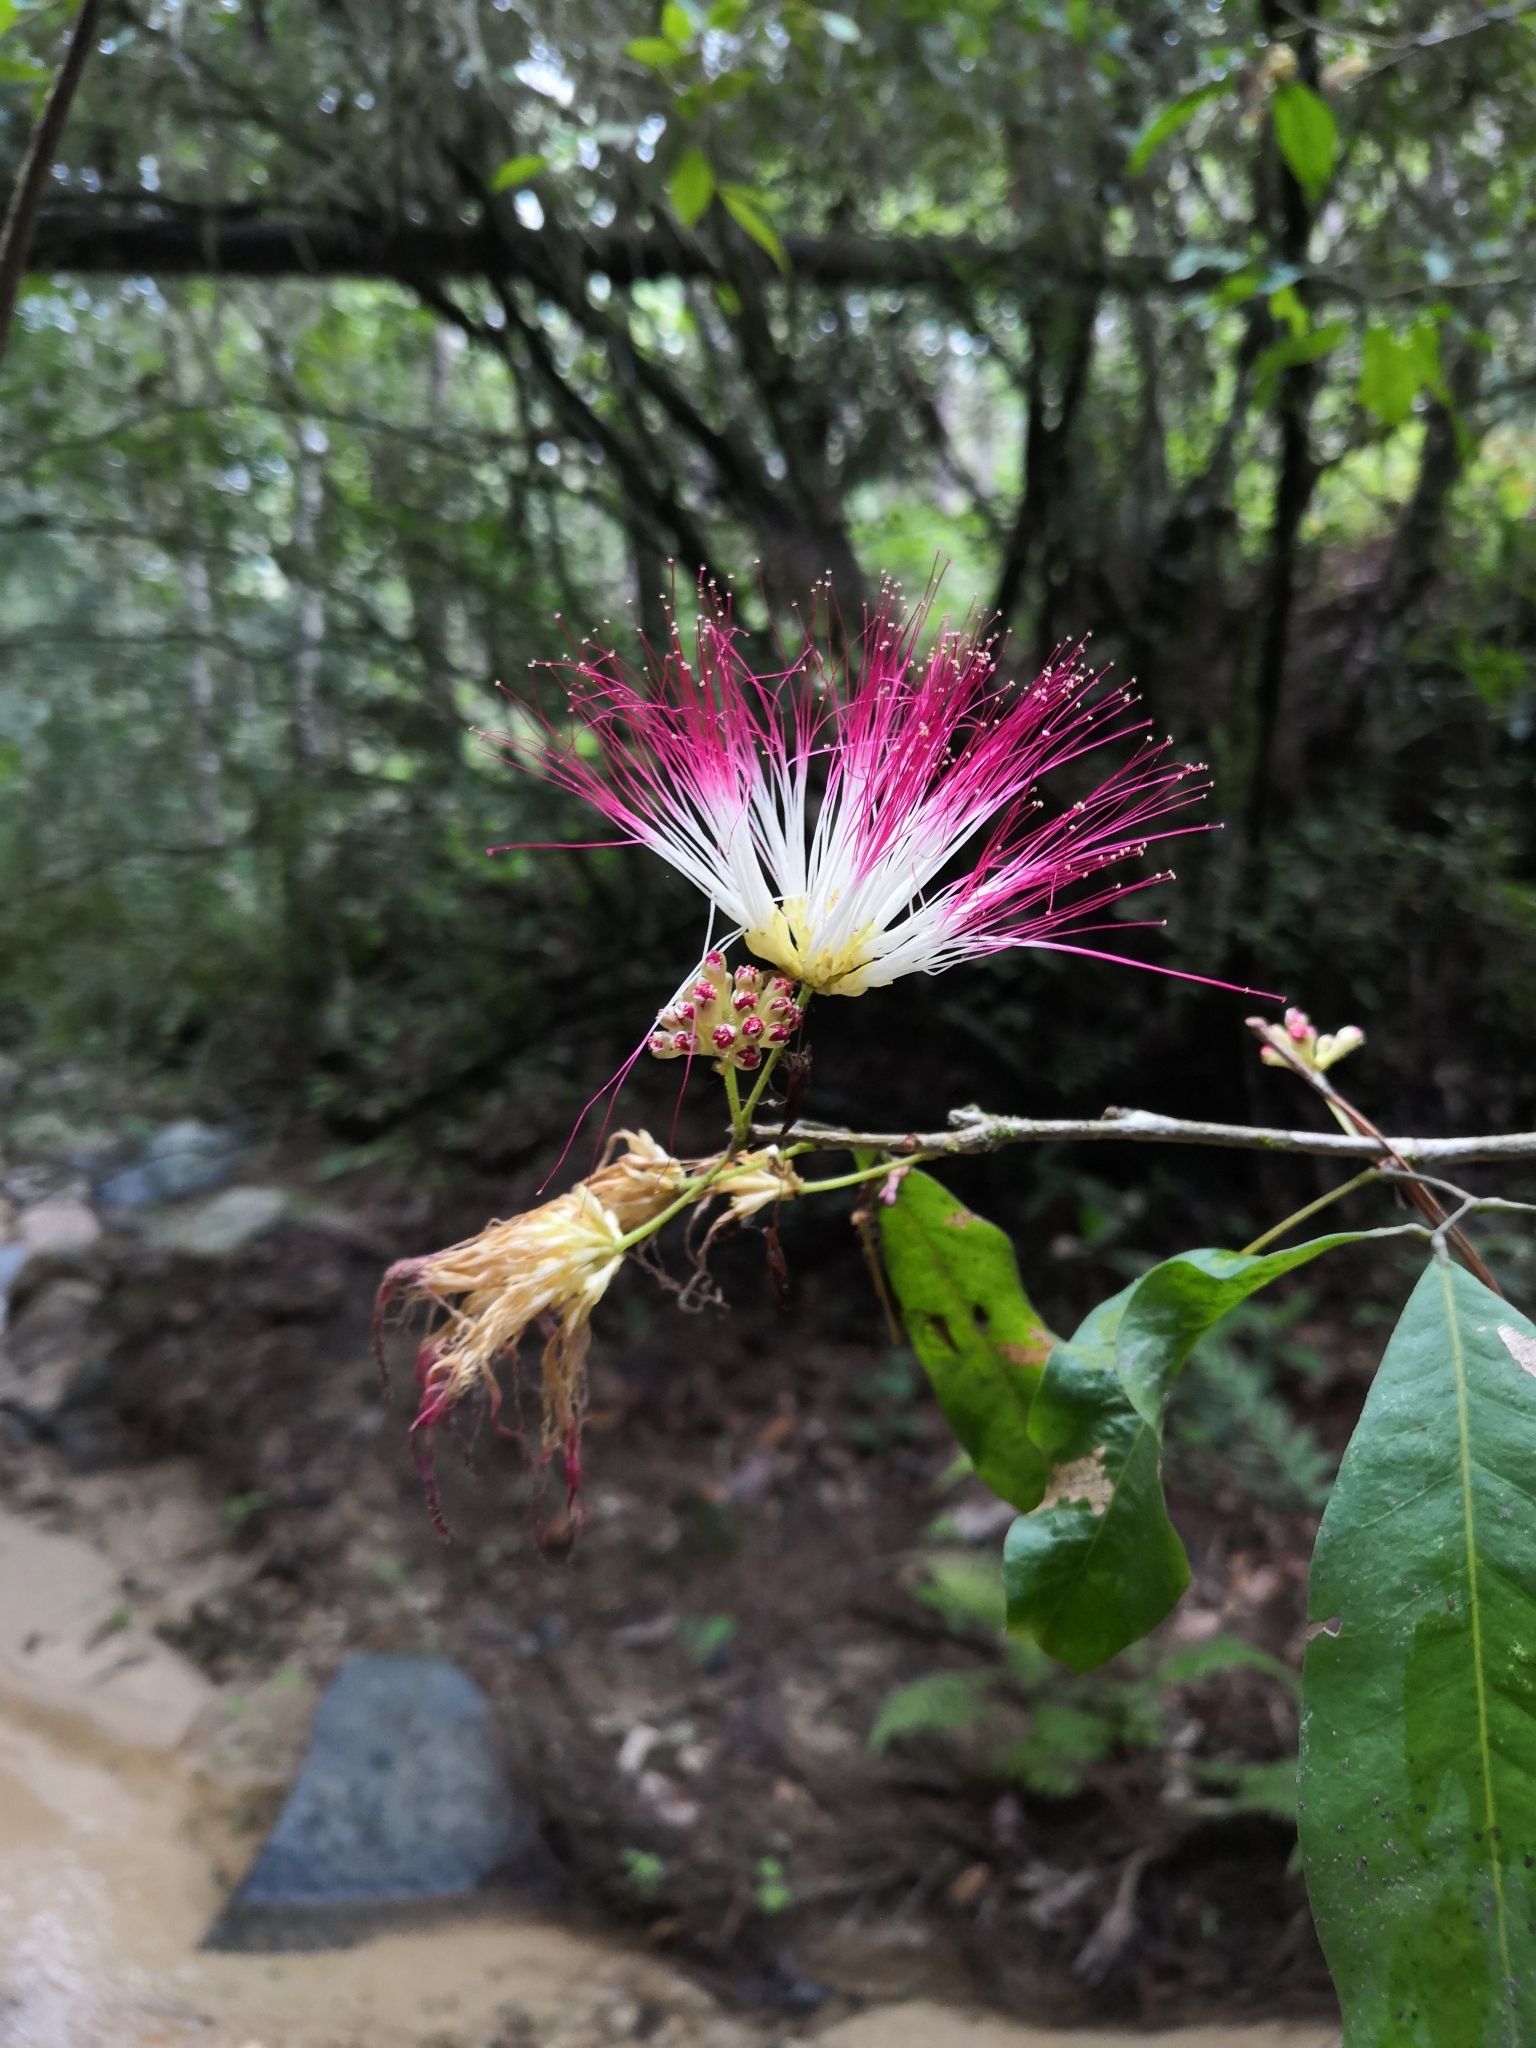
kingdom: Plantae
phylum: Tracheophyta
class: Magnoliopsida
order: Fabales
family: Fabaceae
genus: Calliandra
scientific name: Calliandra laevis
